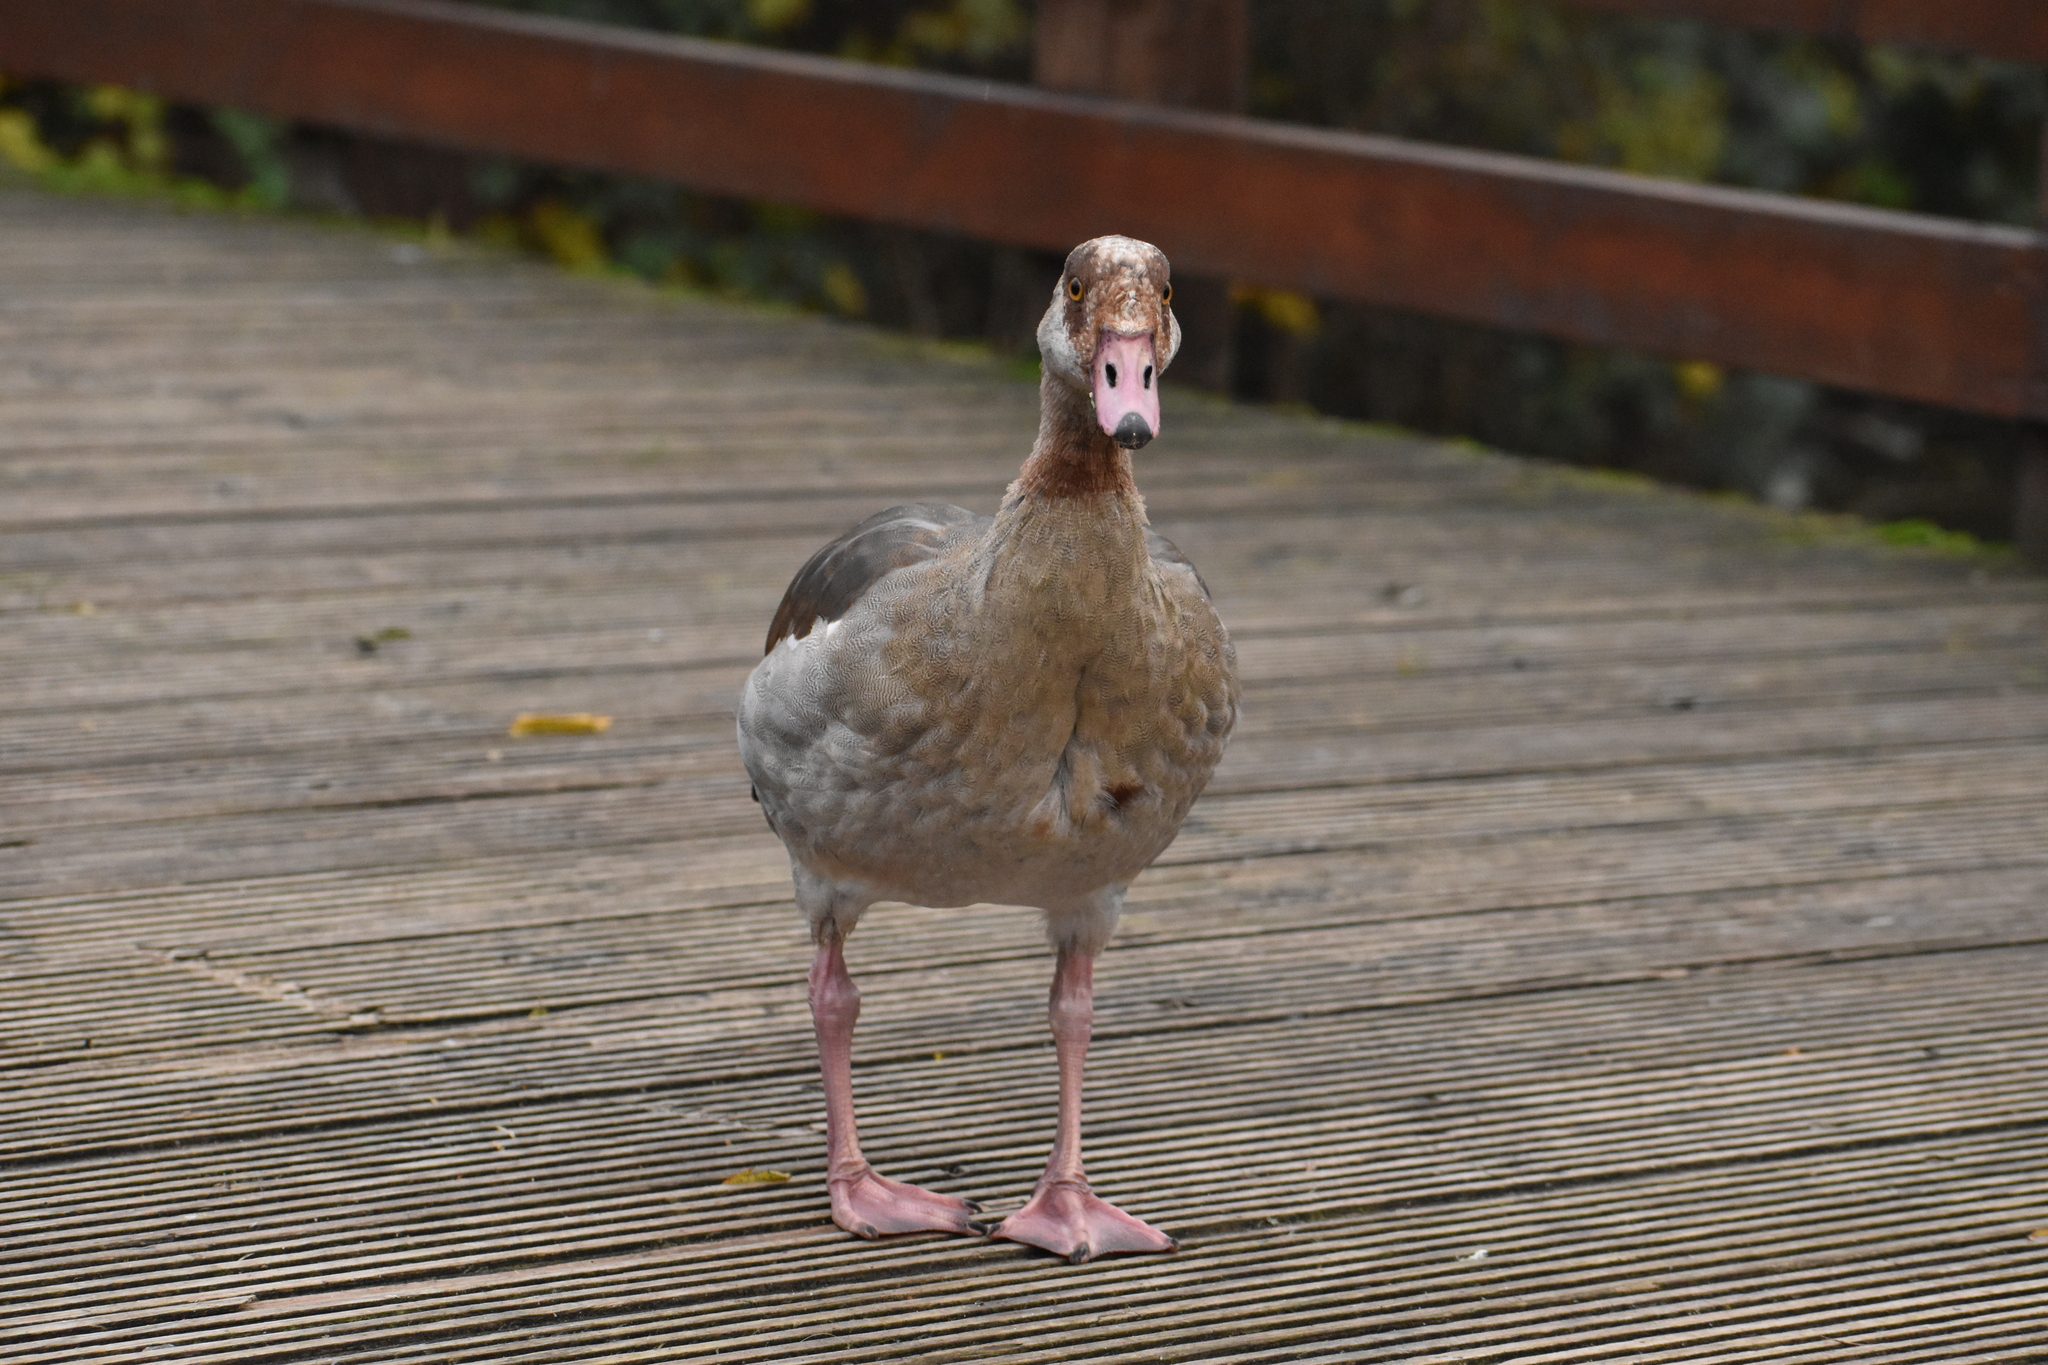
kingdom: Animalia
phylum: Chordata
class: Aves
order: Anseriformes
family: Anatidae
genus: Alopochen
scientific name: Alopochen aegyptiaca
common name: Egyptian goose
